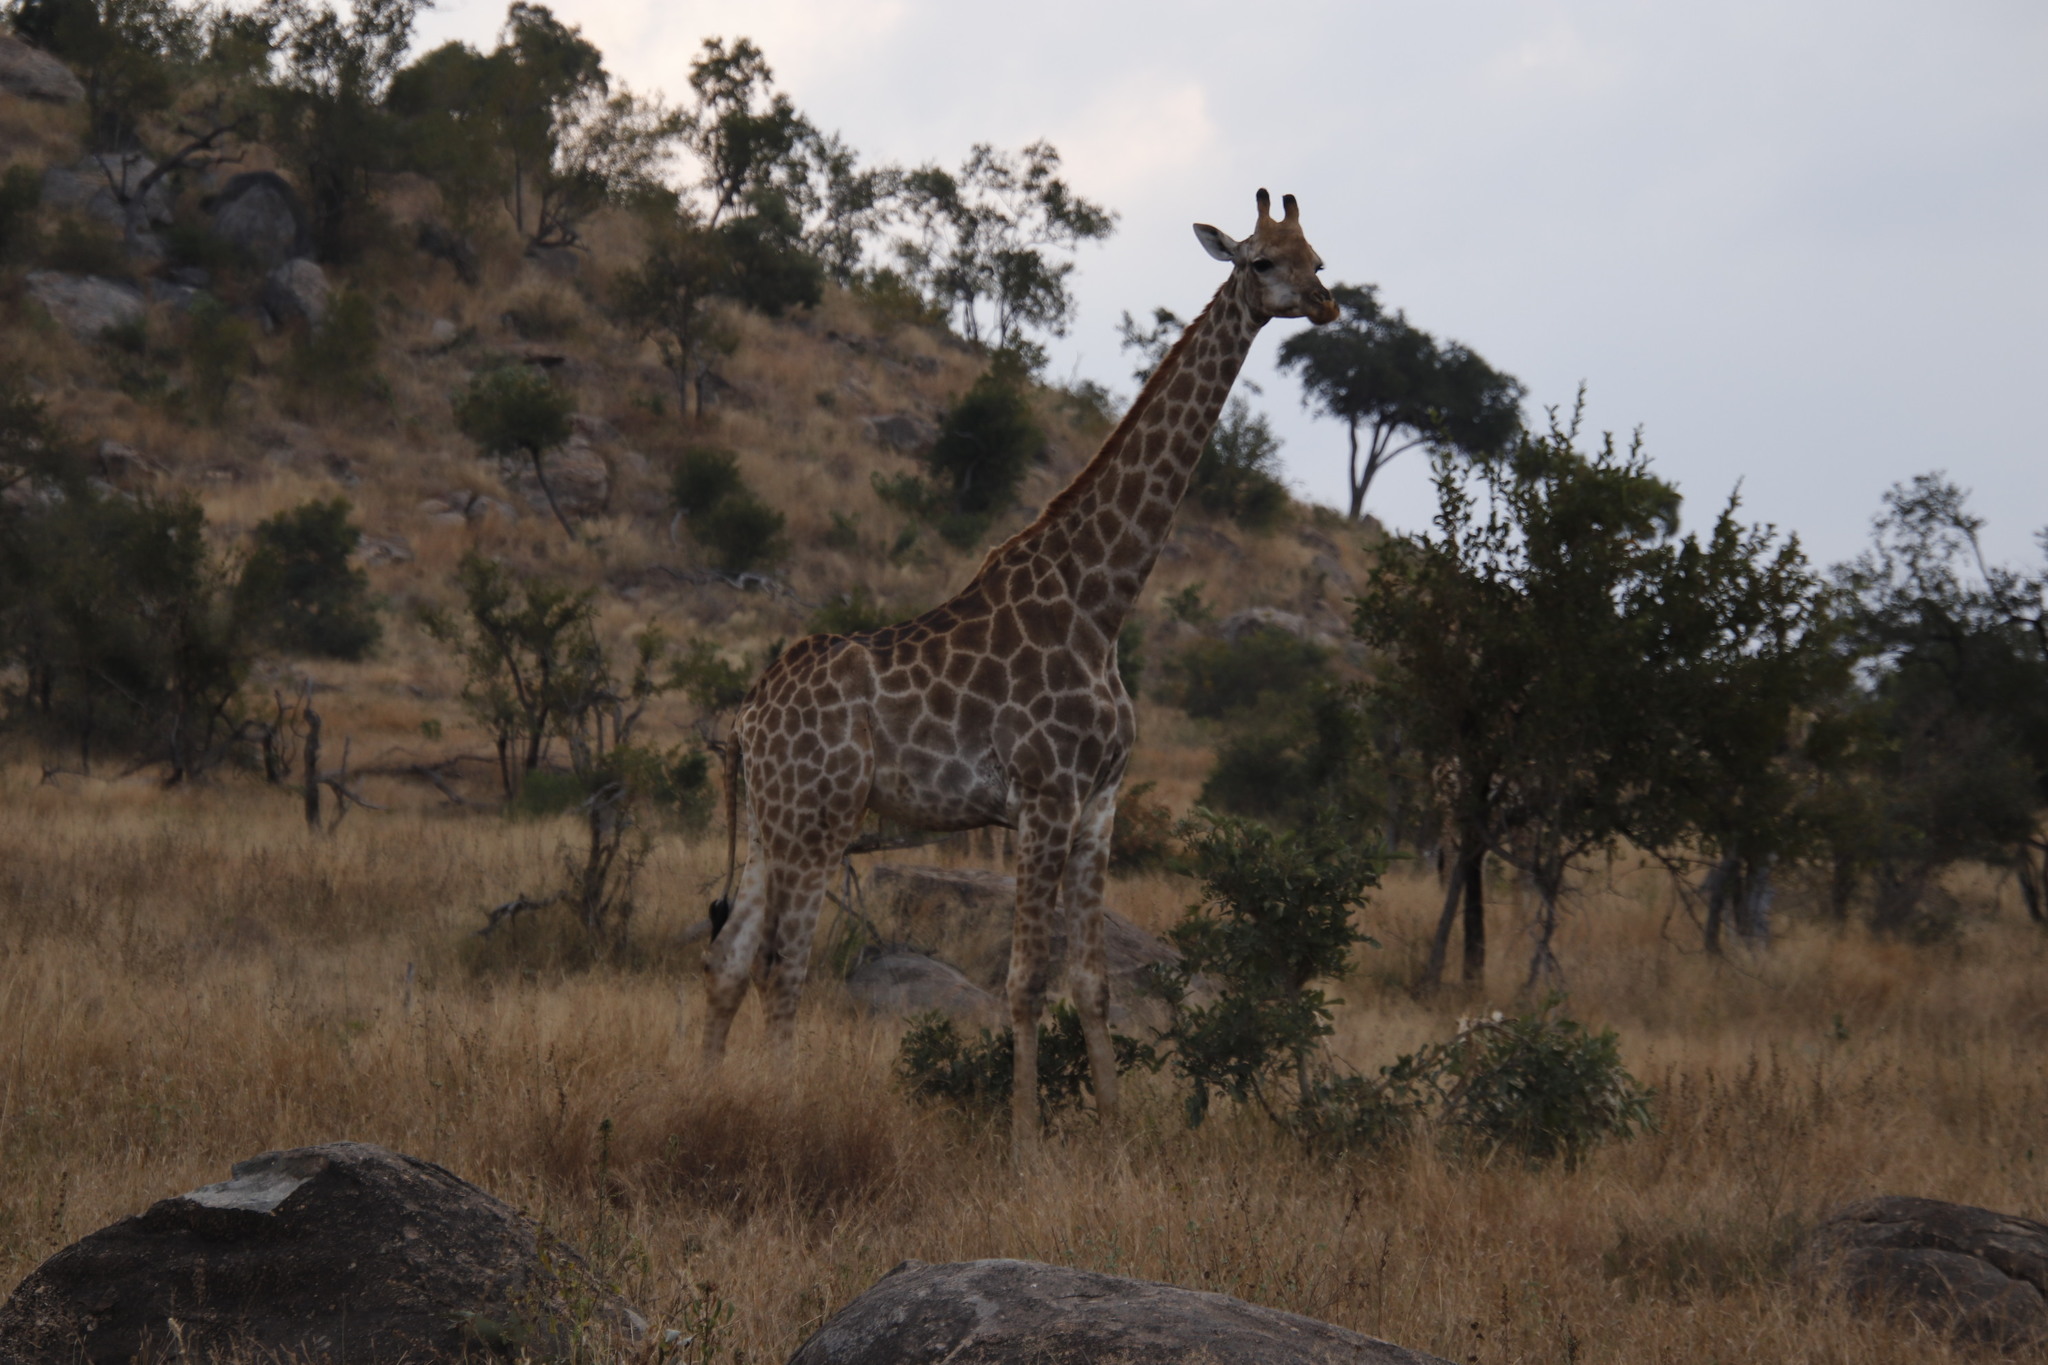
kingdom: Animalia
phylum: Chordata
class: Mammalia
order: Artiodactyla
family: Giraffidae
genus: Giraffa
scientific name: Giraffa giraffa
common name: Southern giraffe
